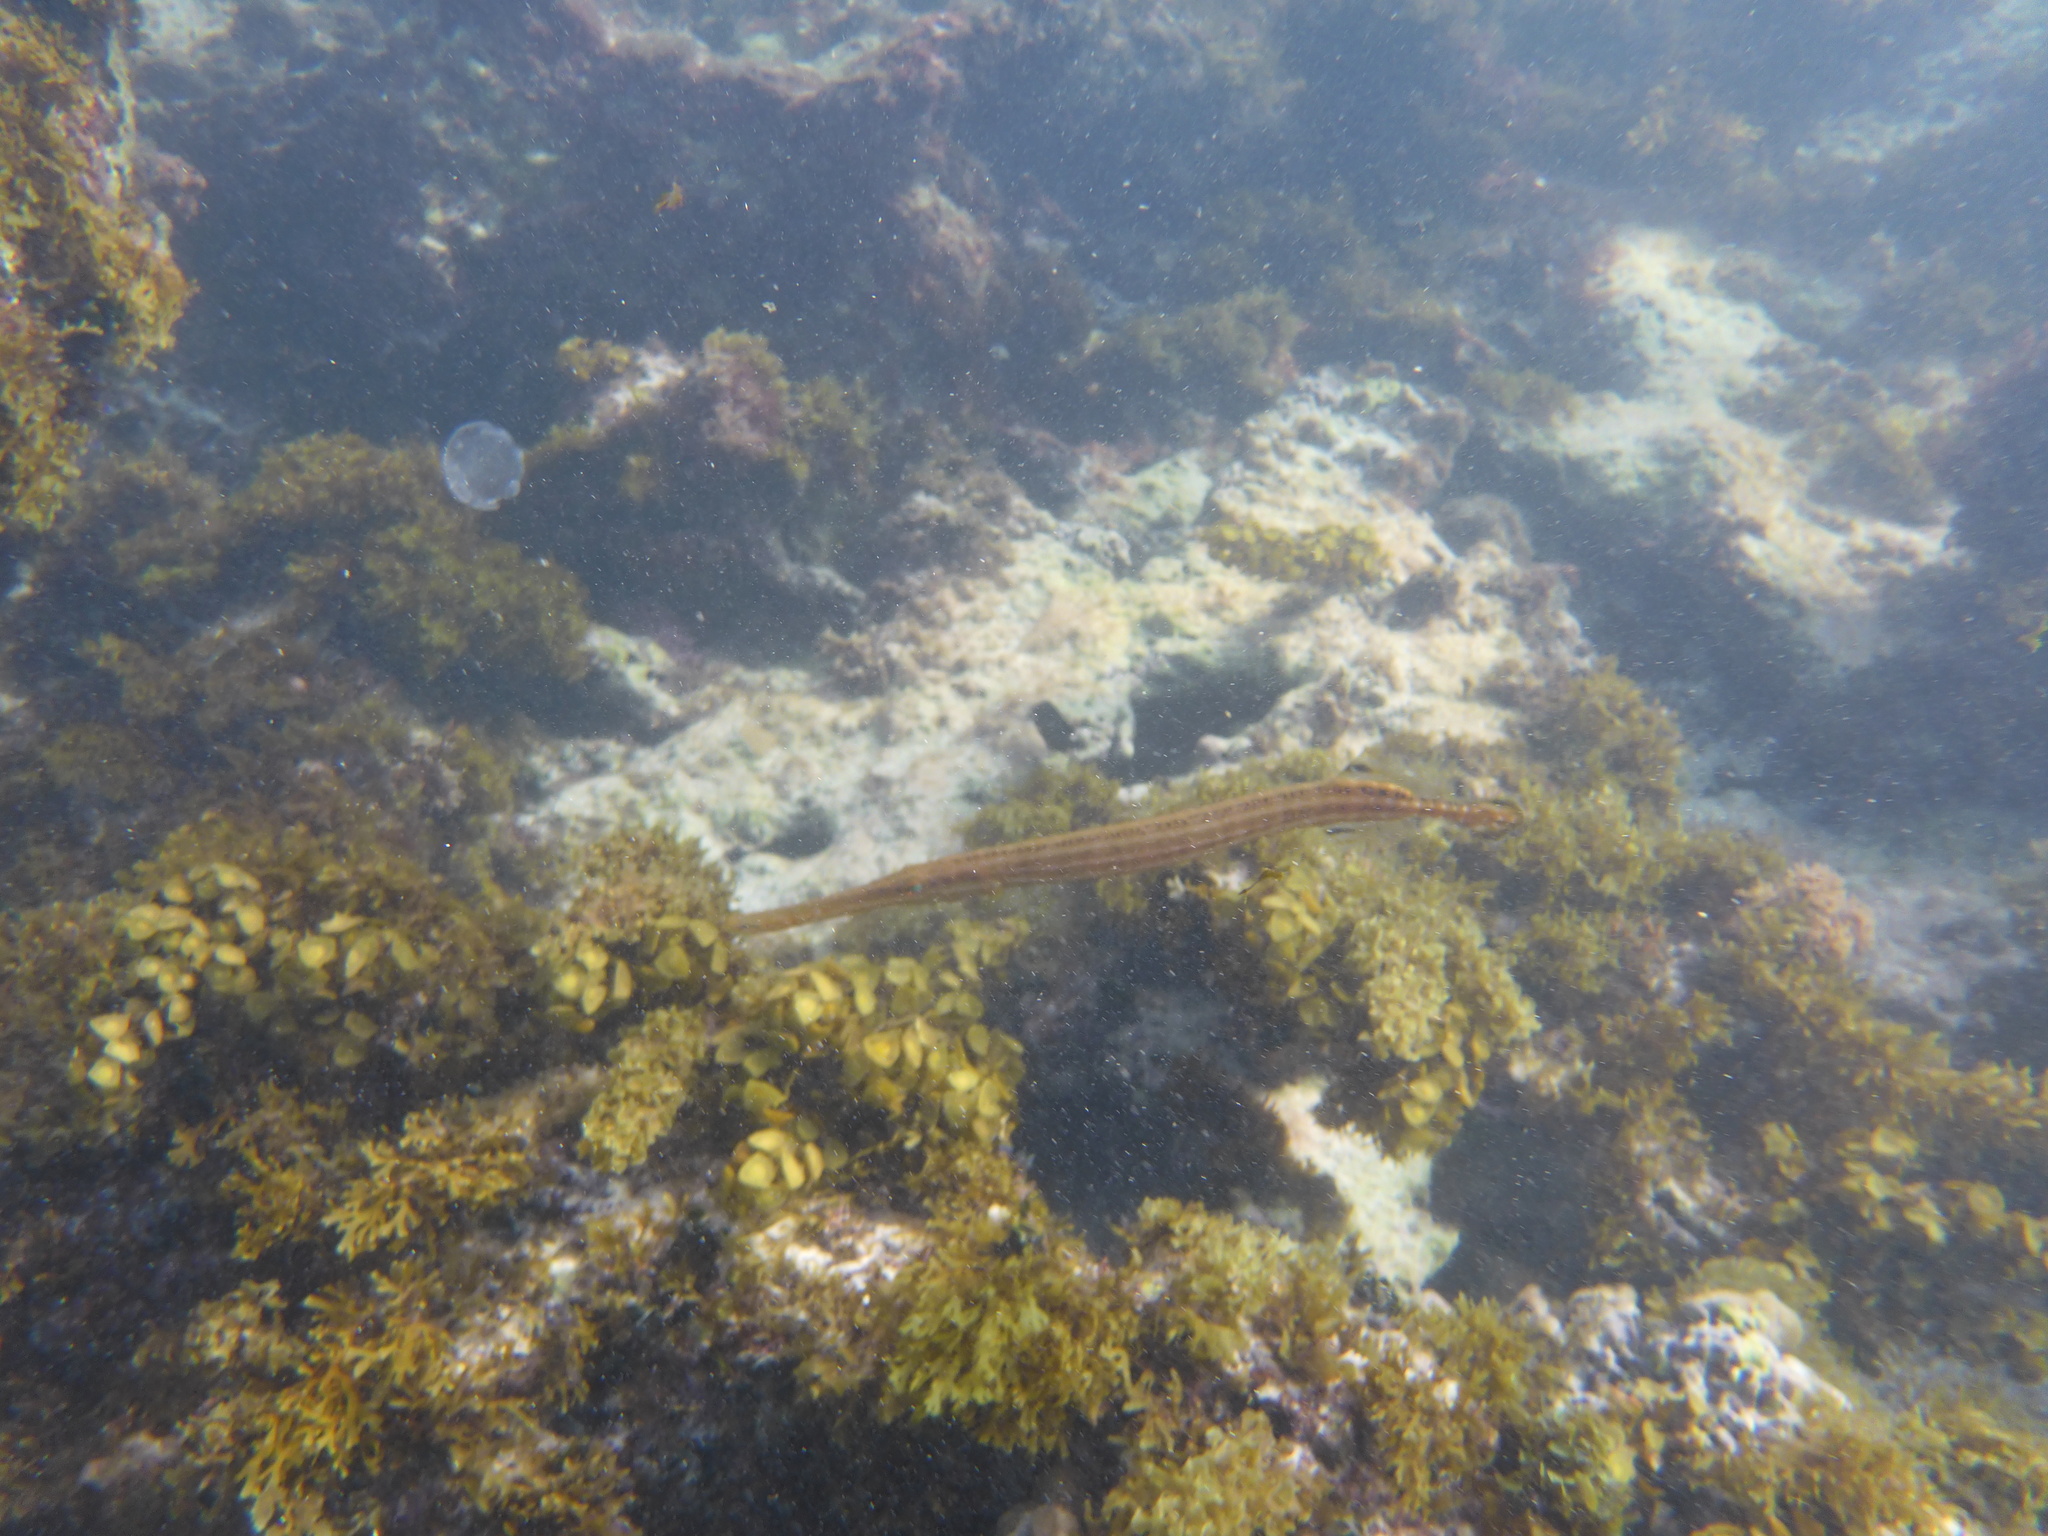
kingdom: Animalia
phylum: Chordata
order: Syngnathiformes
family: Aulostomidae
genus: Aulostomus
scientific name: Aulostomus maculatus
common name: West atlantic trumpetfish
